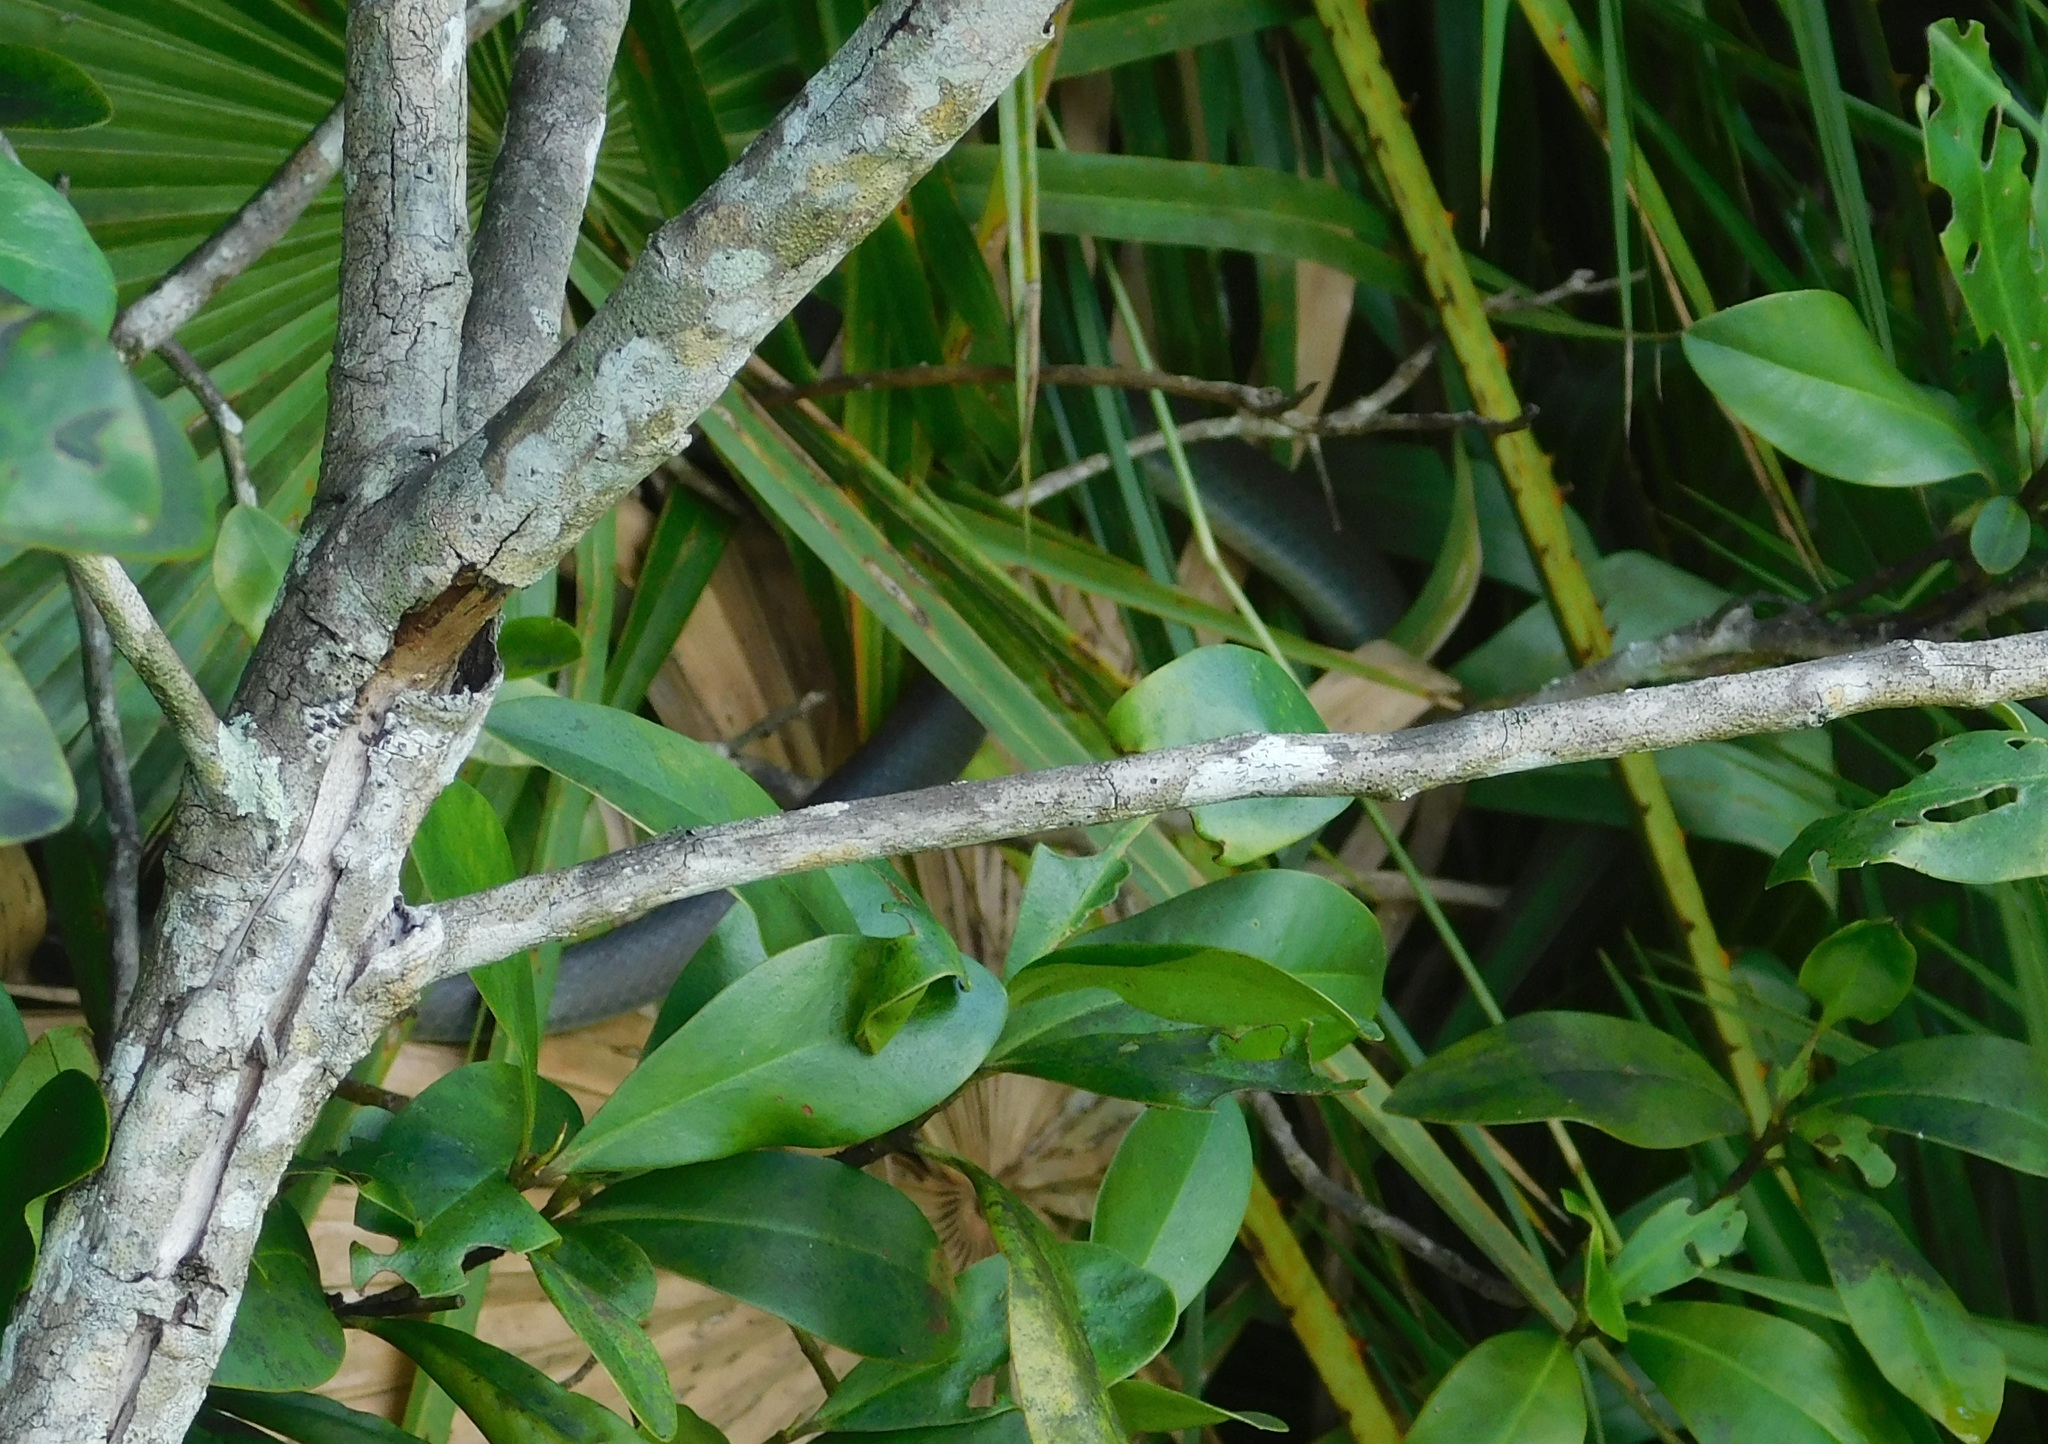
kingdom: Animalia
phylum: Chordata
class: Squamata
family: Colubridae
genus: Coluber
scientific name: Coluber constrictor
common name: Eastern racer
